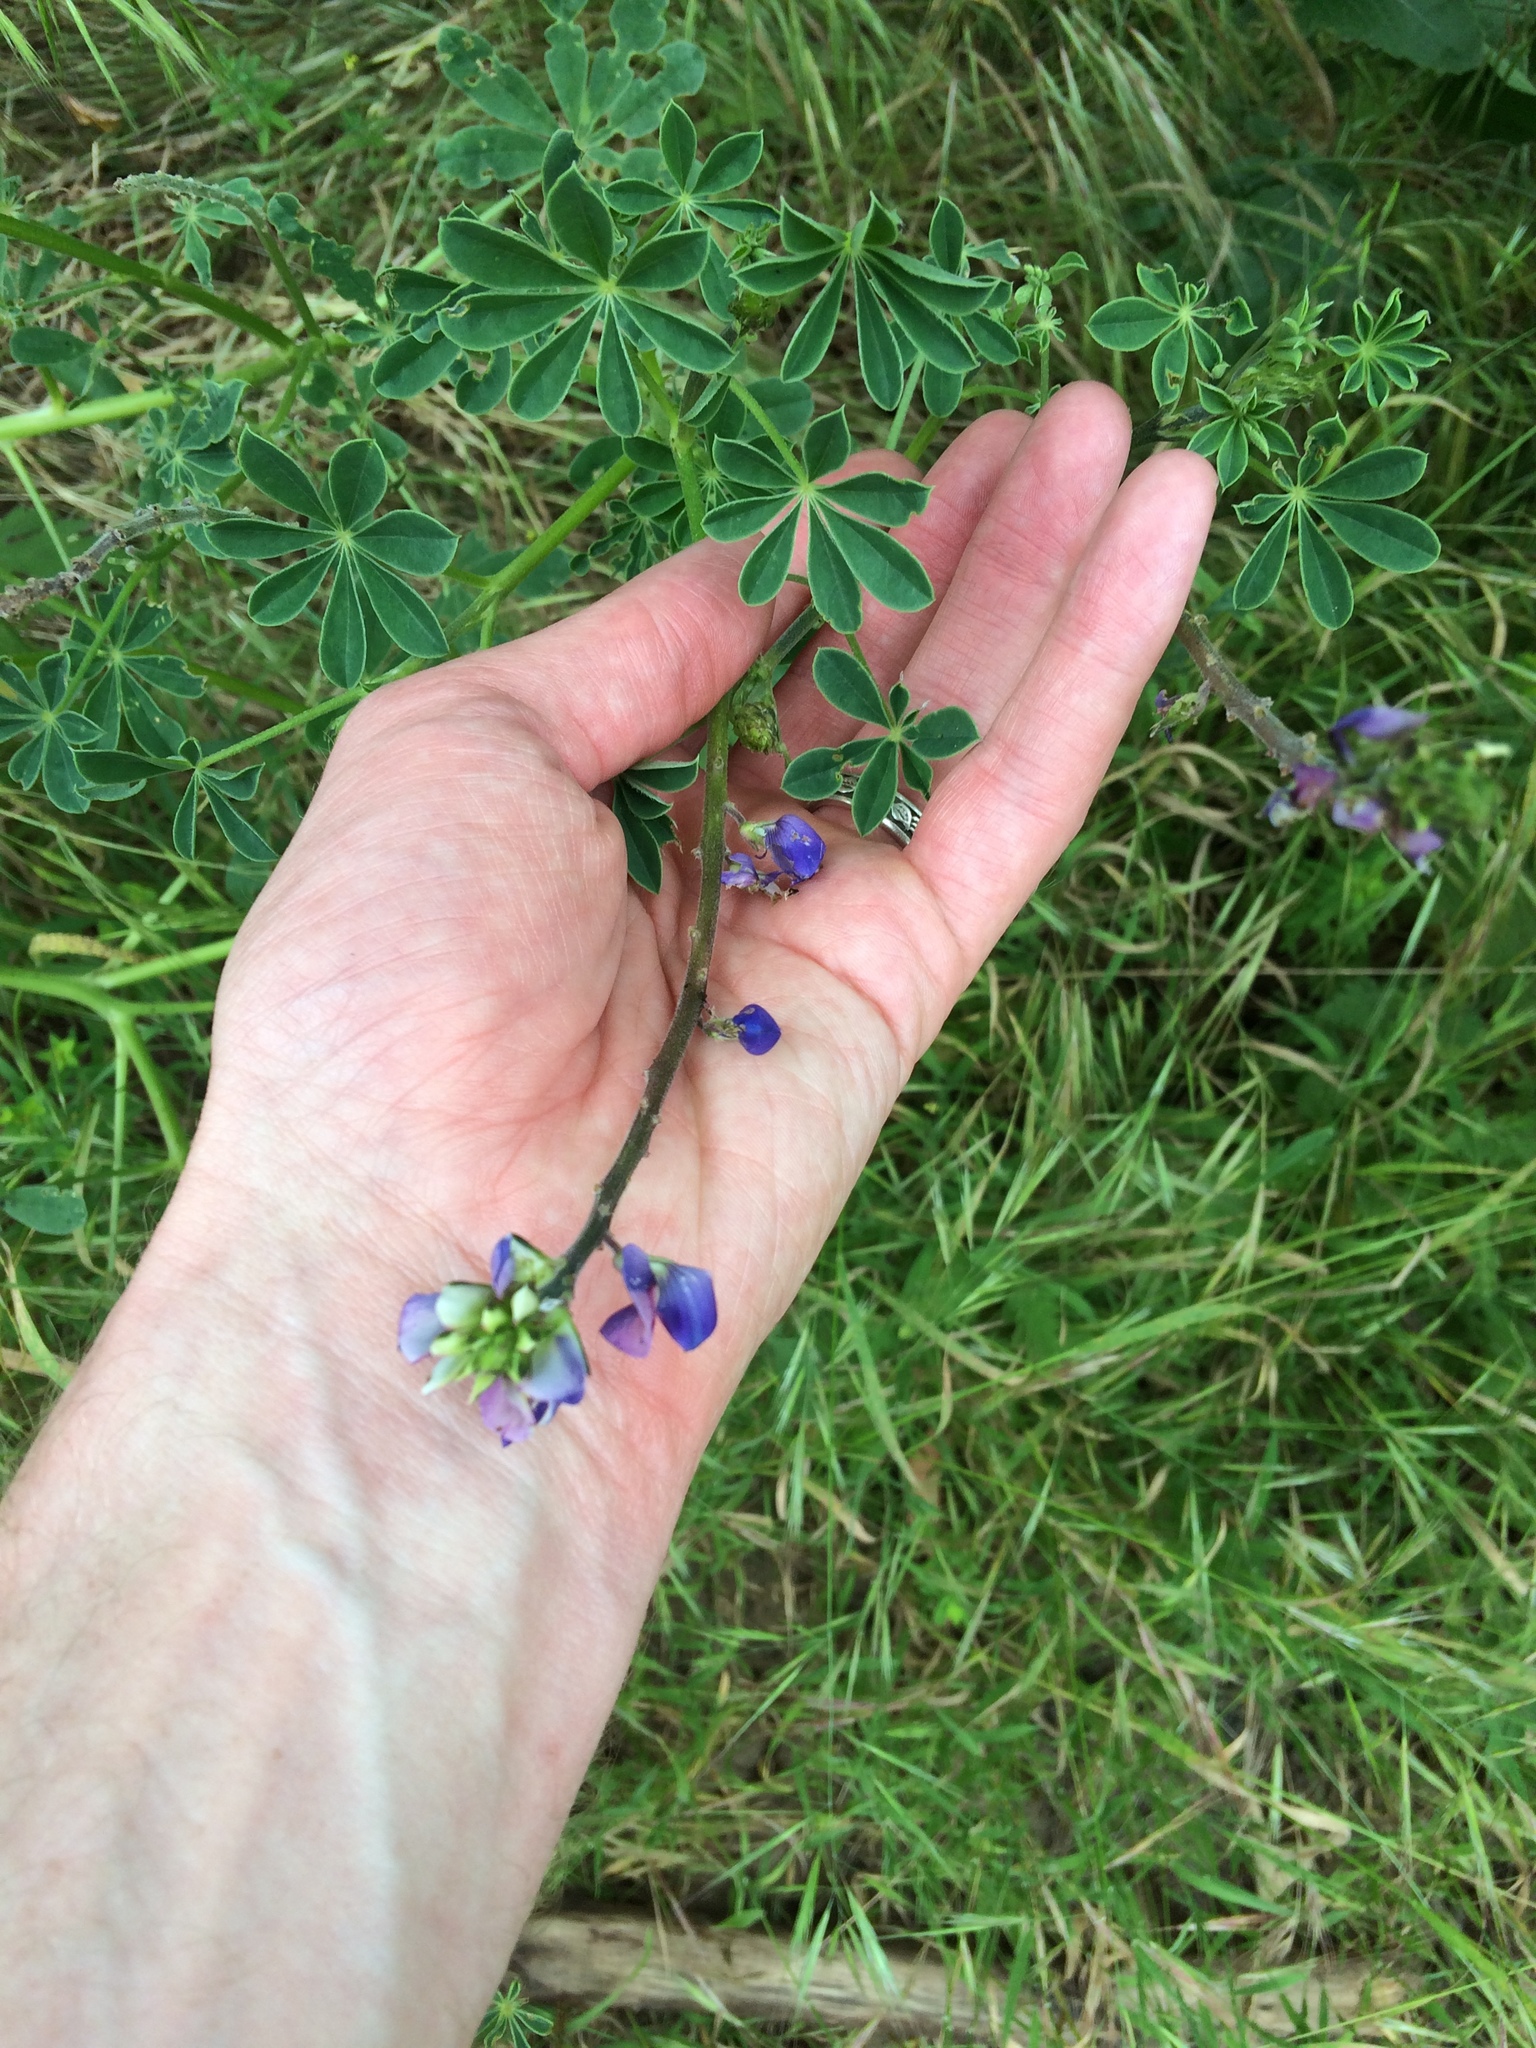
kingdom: Plantae
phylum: Tracheophyta
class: Magnoliopsida
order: Fabales
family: Fabaceae
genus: Lupinus
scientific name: Lupinus succulentus
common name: Arroyo lupine
